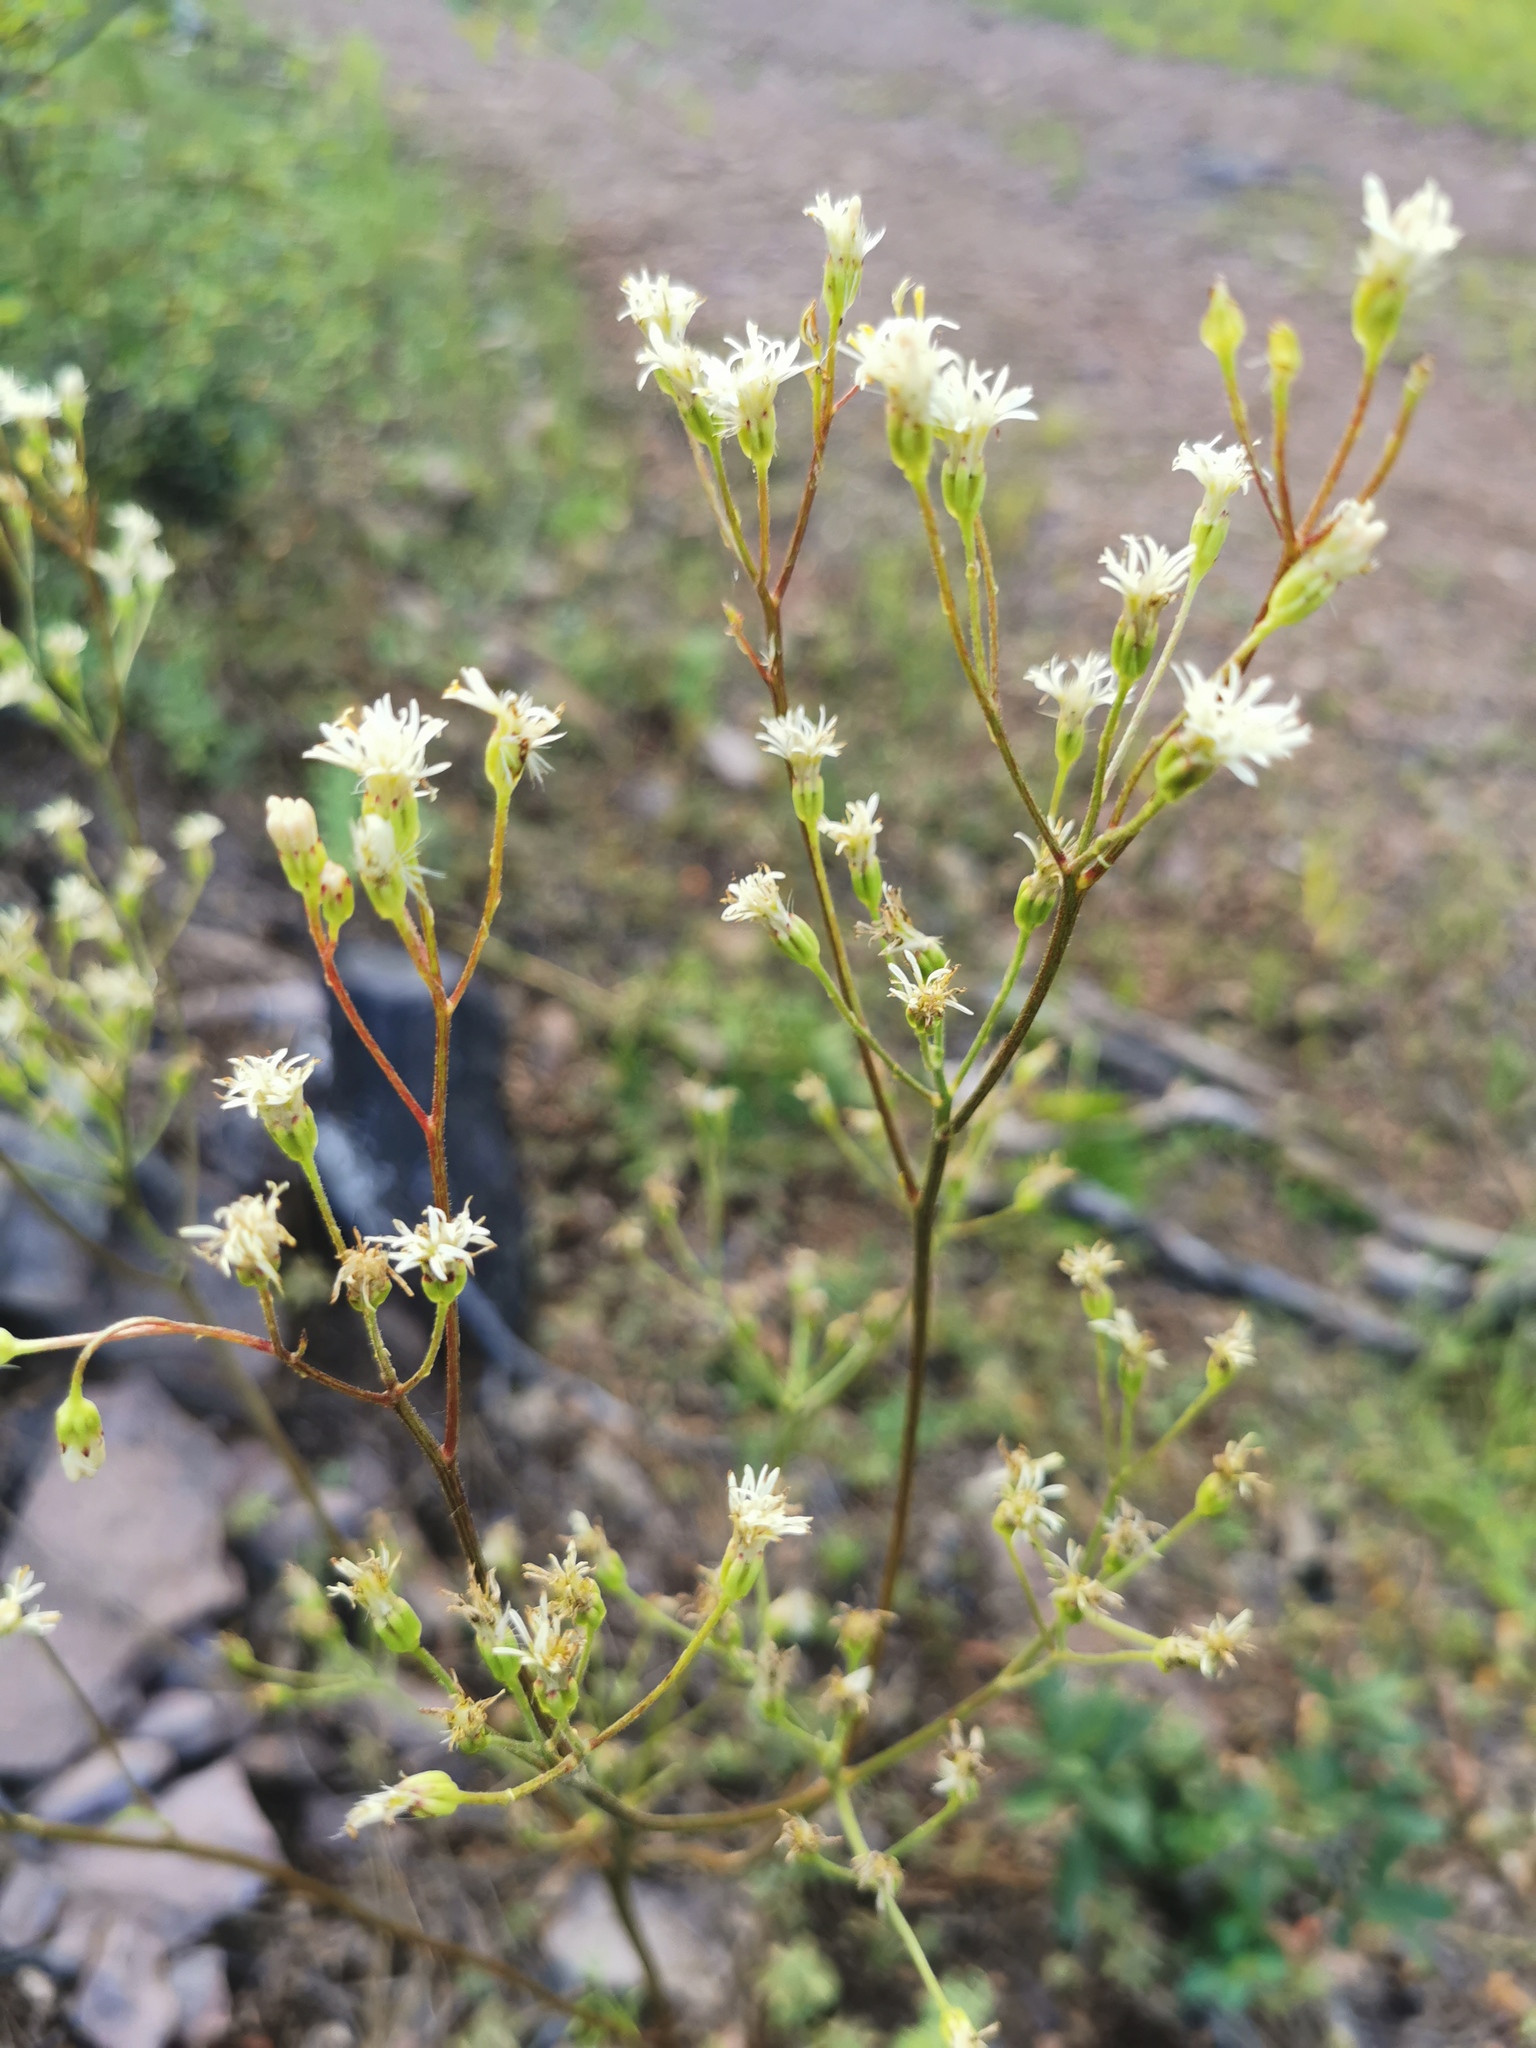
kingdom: Plantae
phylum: Tracheophyta
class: Magnoliopsida
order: Asterales
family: Asteraceae
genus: Psacalium
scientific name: Psacalium decompositum
